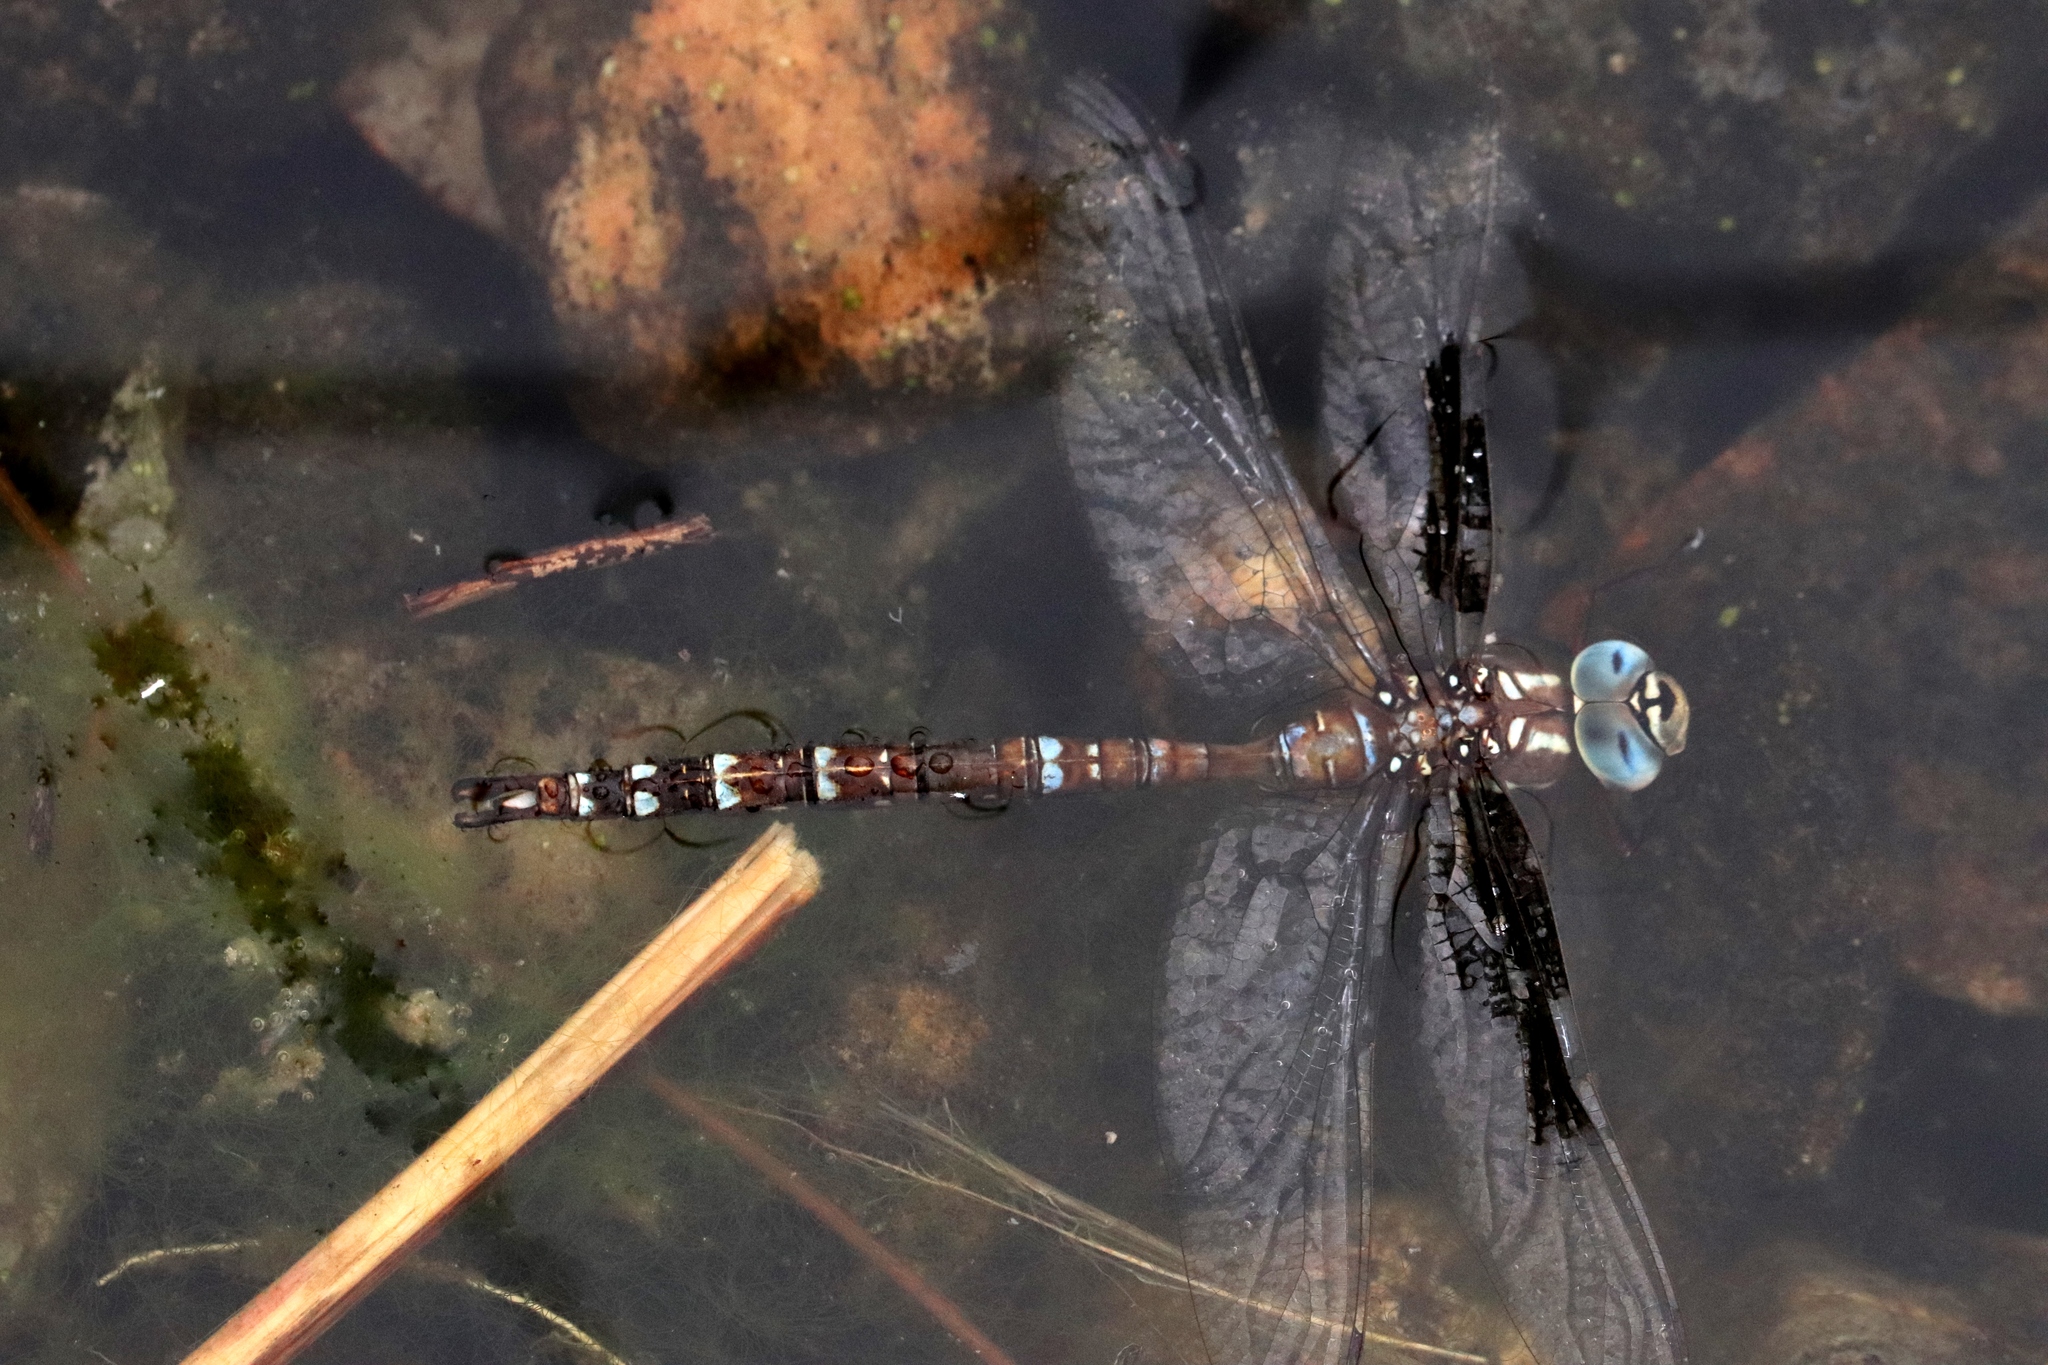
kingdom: Animalia
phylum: Arthropoda
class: Insecta
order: Odonata
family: Aeshnidae
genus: Aeshna
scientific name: Aeshna umbrosa
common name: Shadow darner
